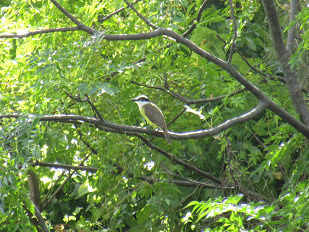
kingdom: Animalia
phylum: Chordata
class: Aves
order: Passeriformes
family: Tyrannidae
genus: Pitangus
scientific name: Pitangus sulphuratus
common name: Great kiskadee
